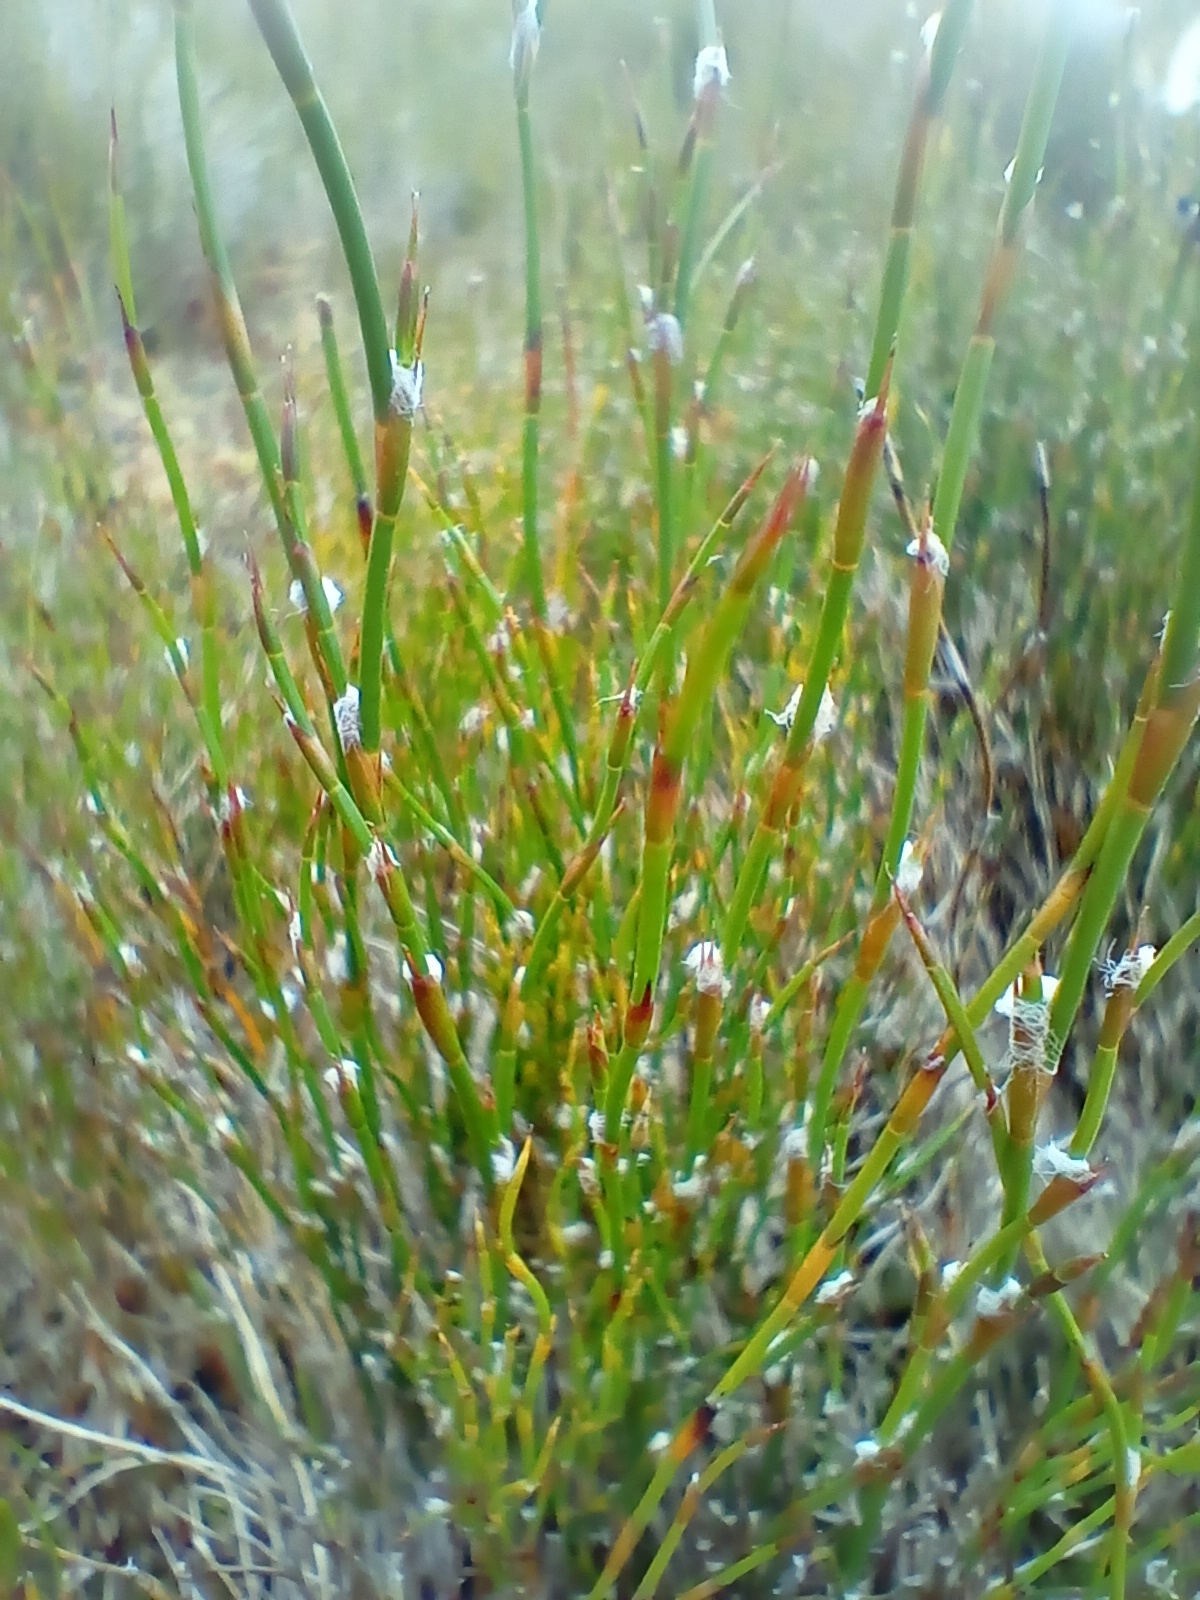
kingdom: Plantae
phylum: Tracheophyta
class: Liliopsida
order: Poales
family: Restionaceae
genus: Empodisma
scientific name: Empodisma minus
